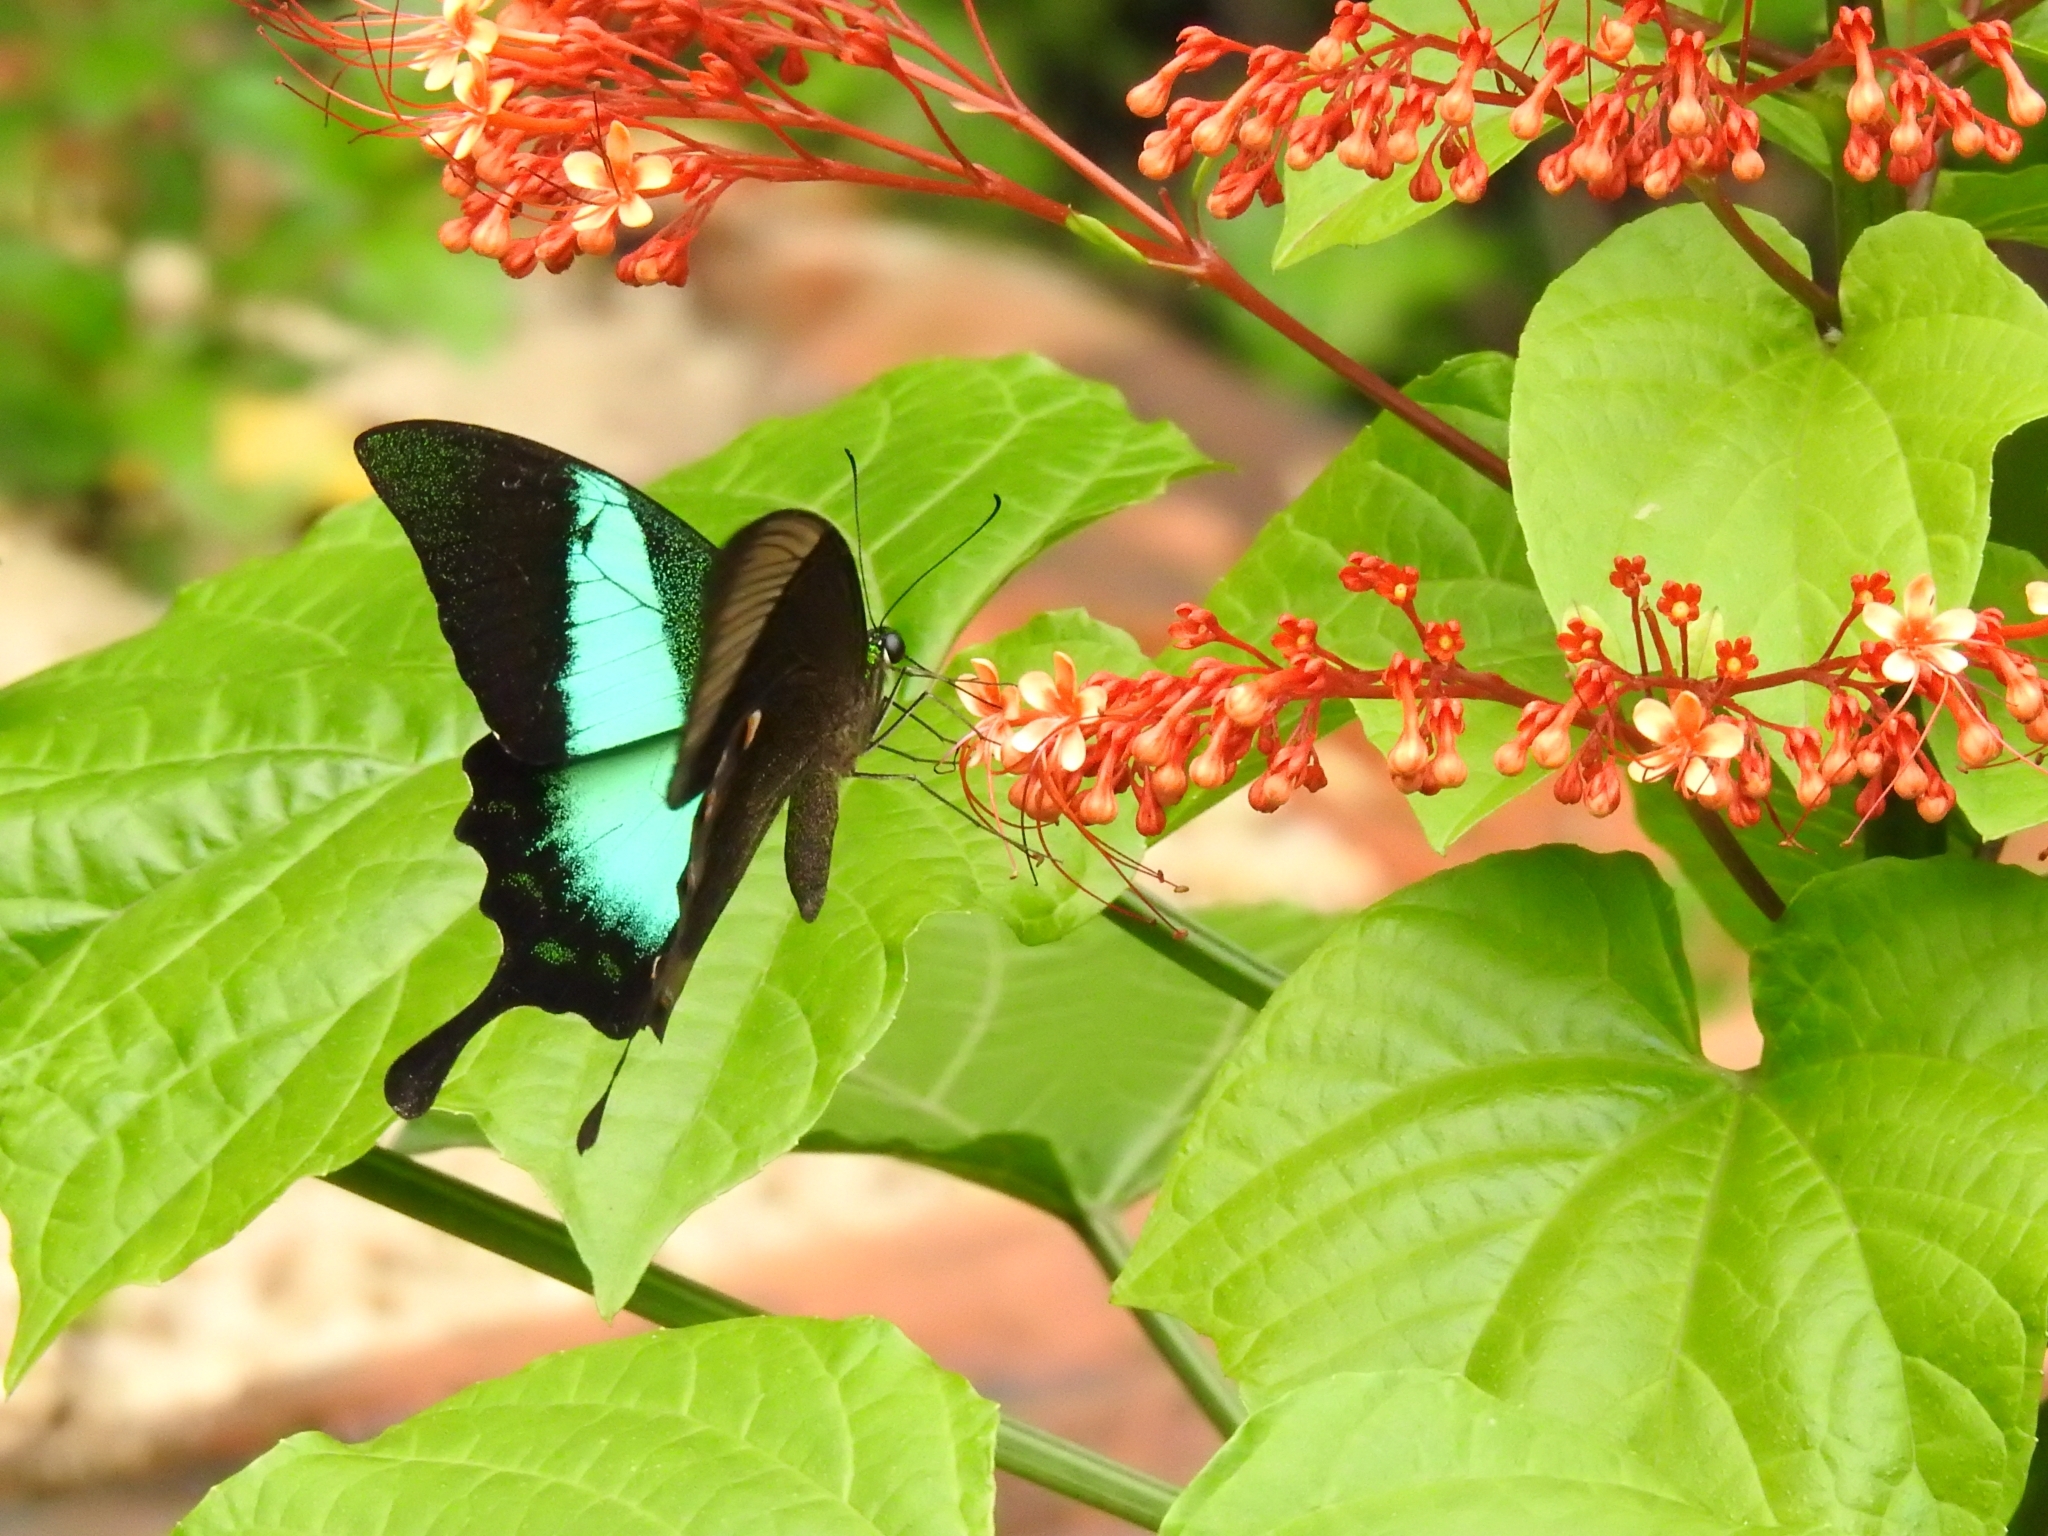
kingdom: Animalia
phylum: Arthropoda
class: Insecta
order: Lepidoptera
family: Papilionidae
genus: Papilio
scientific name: Papilio buddha
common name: Malabar banded peacock
